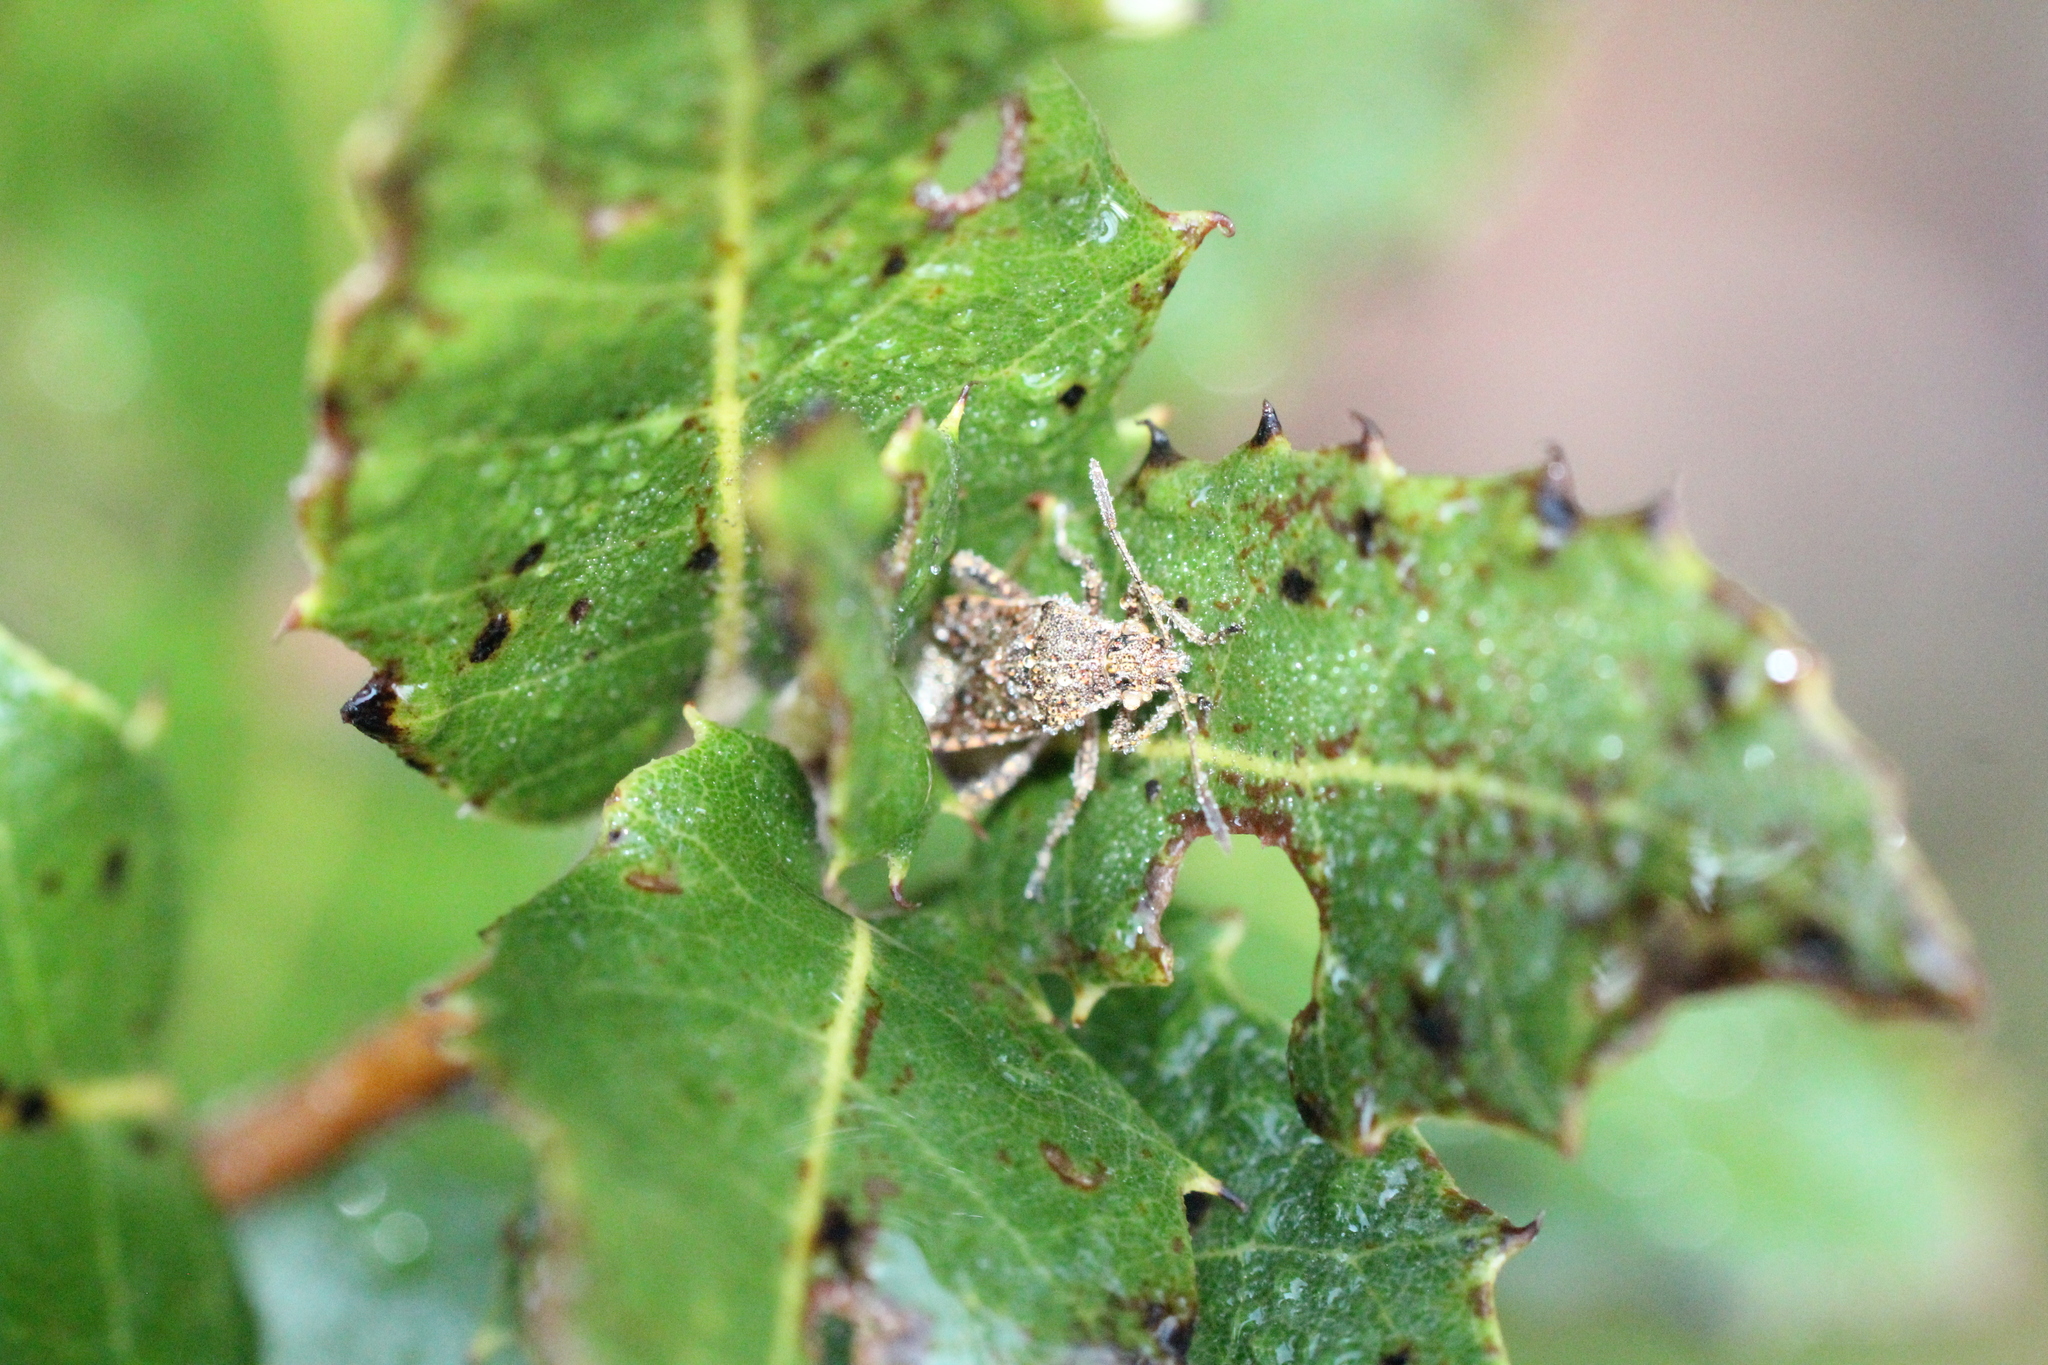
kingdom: Animalia
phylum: Arthropoda
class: Insecta
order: Hemiptera
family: Rhopalidae
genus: Stictopleurus
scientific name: Stictopleurus punctatonervosus
